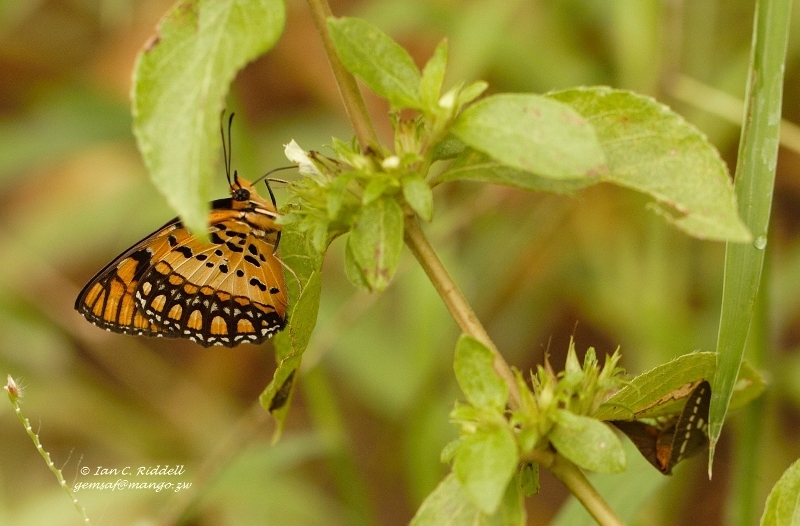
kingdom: Animalia
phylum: Arthropoda
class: Insecta
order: Lepidoptera
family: Nymphalidae
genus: Byblia
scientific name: Byblia acheloia
